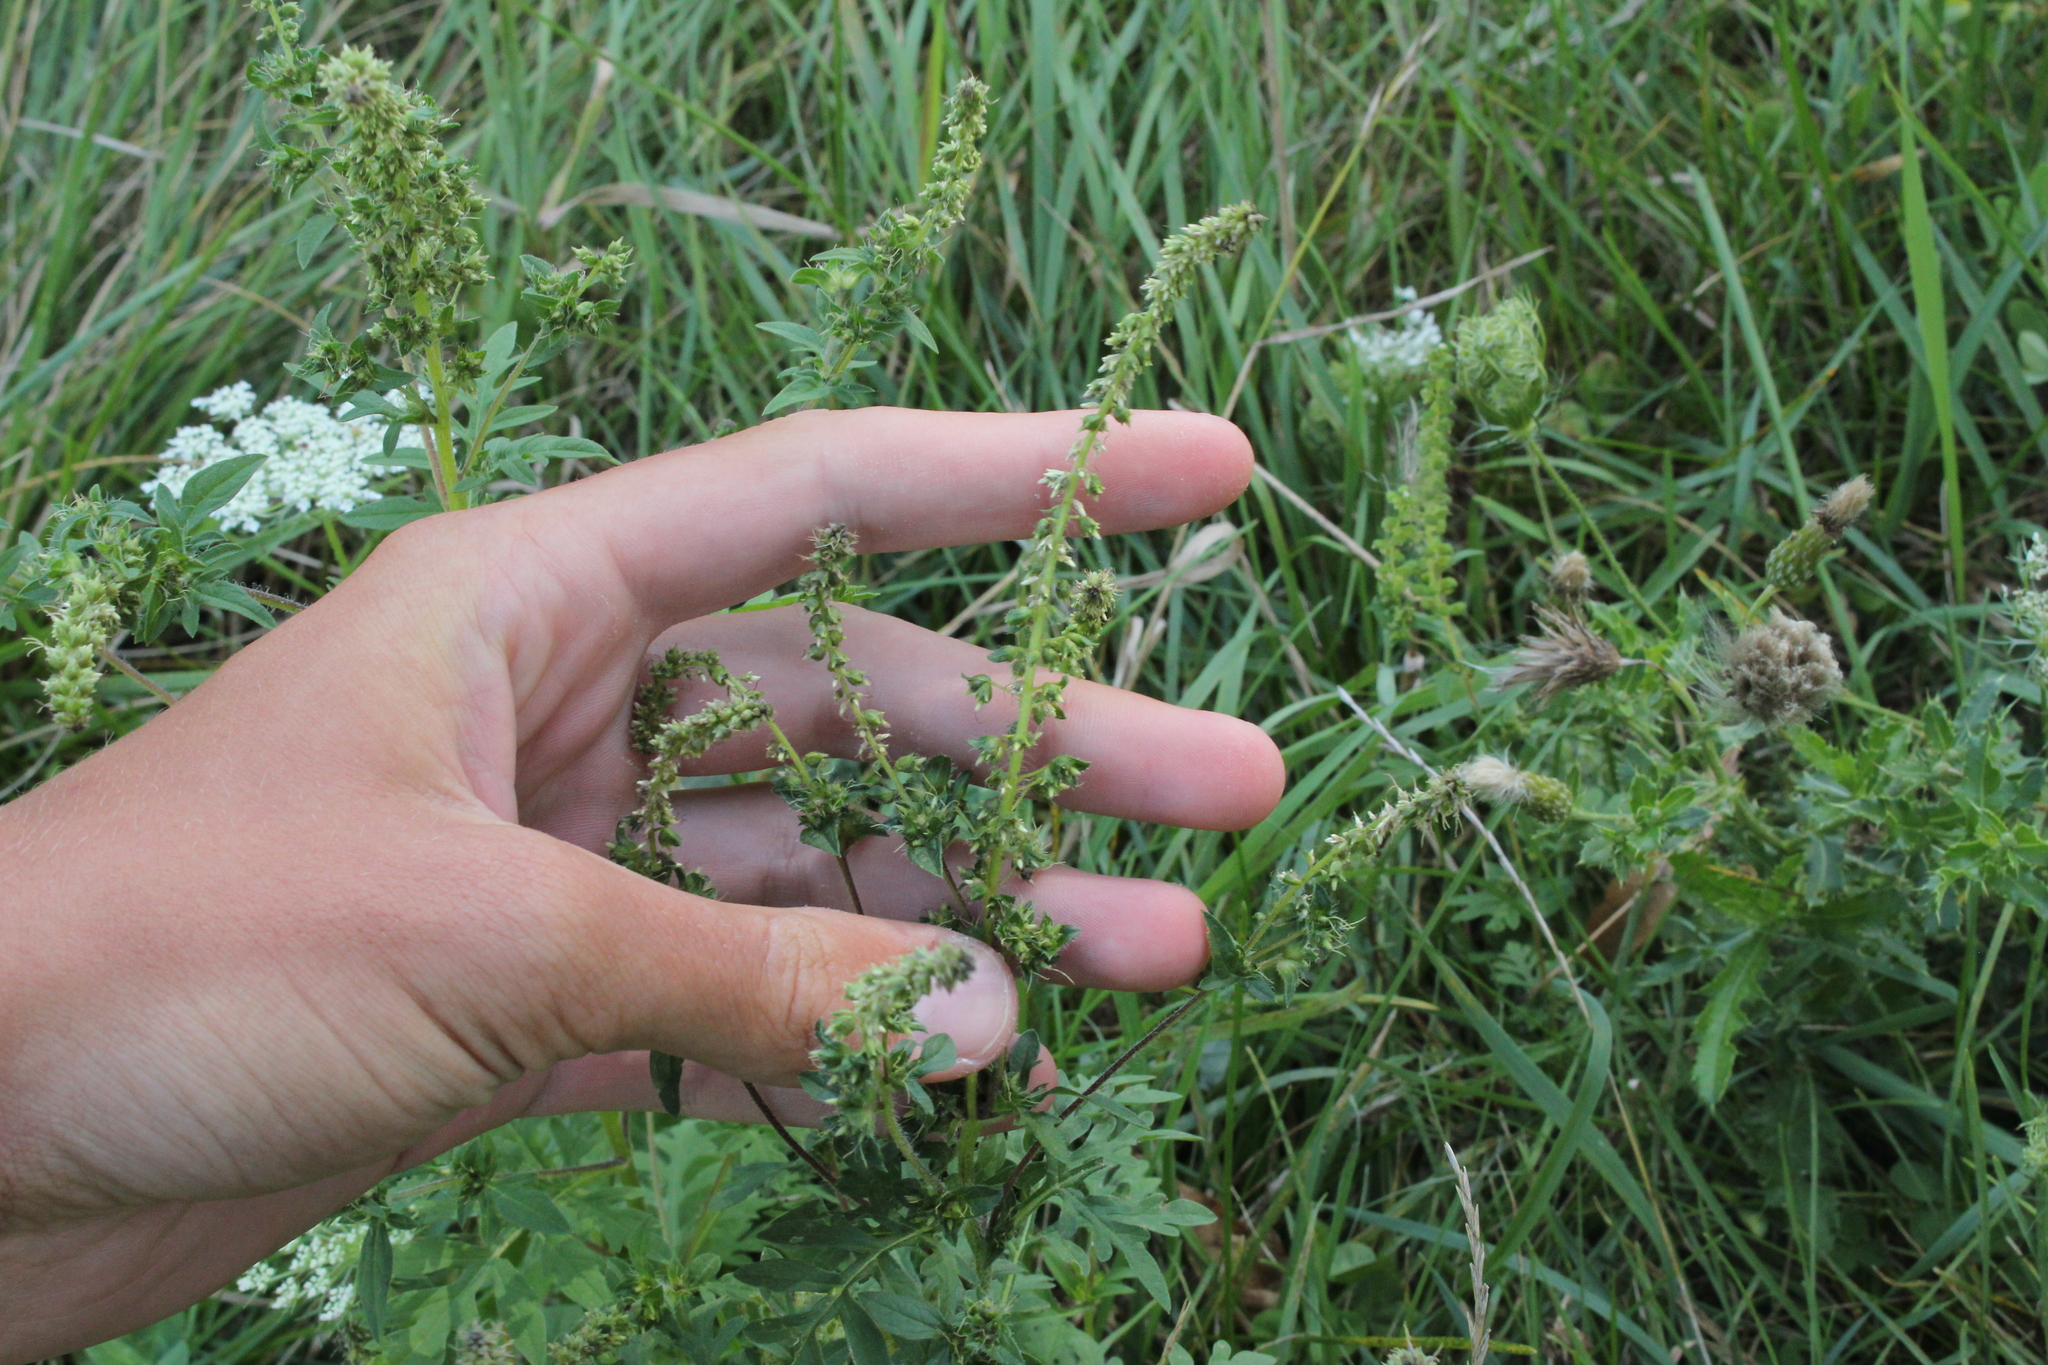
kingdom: Plantae
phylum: Tracheophyta
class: Magnoliopsida
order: Asterales
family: Asteraceae
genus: Ambrosia
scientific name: Ambrosia artemisiifolia
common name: Annual ragweed
